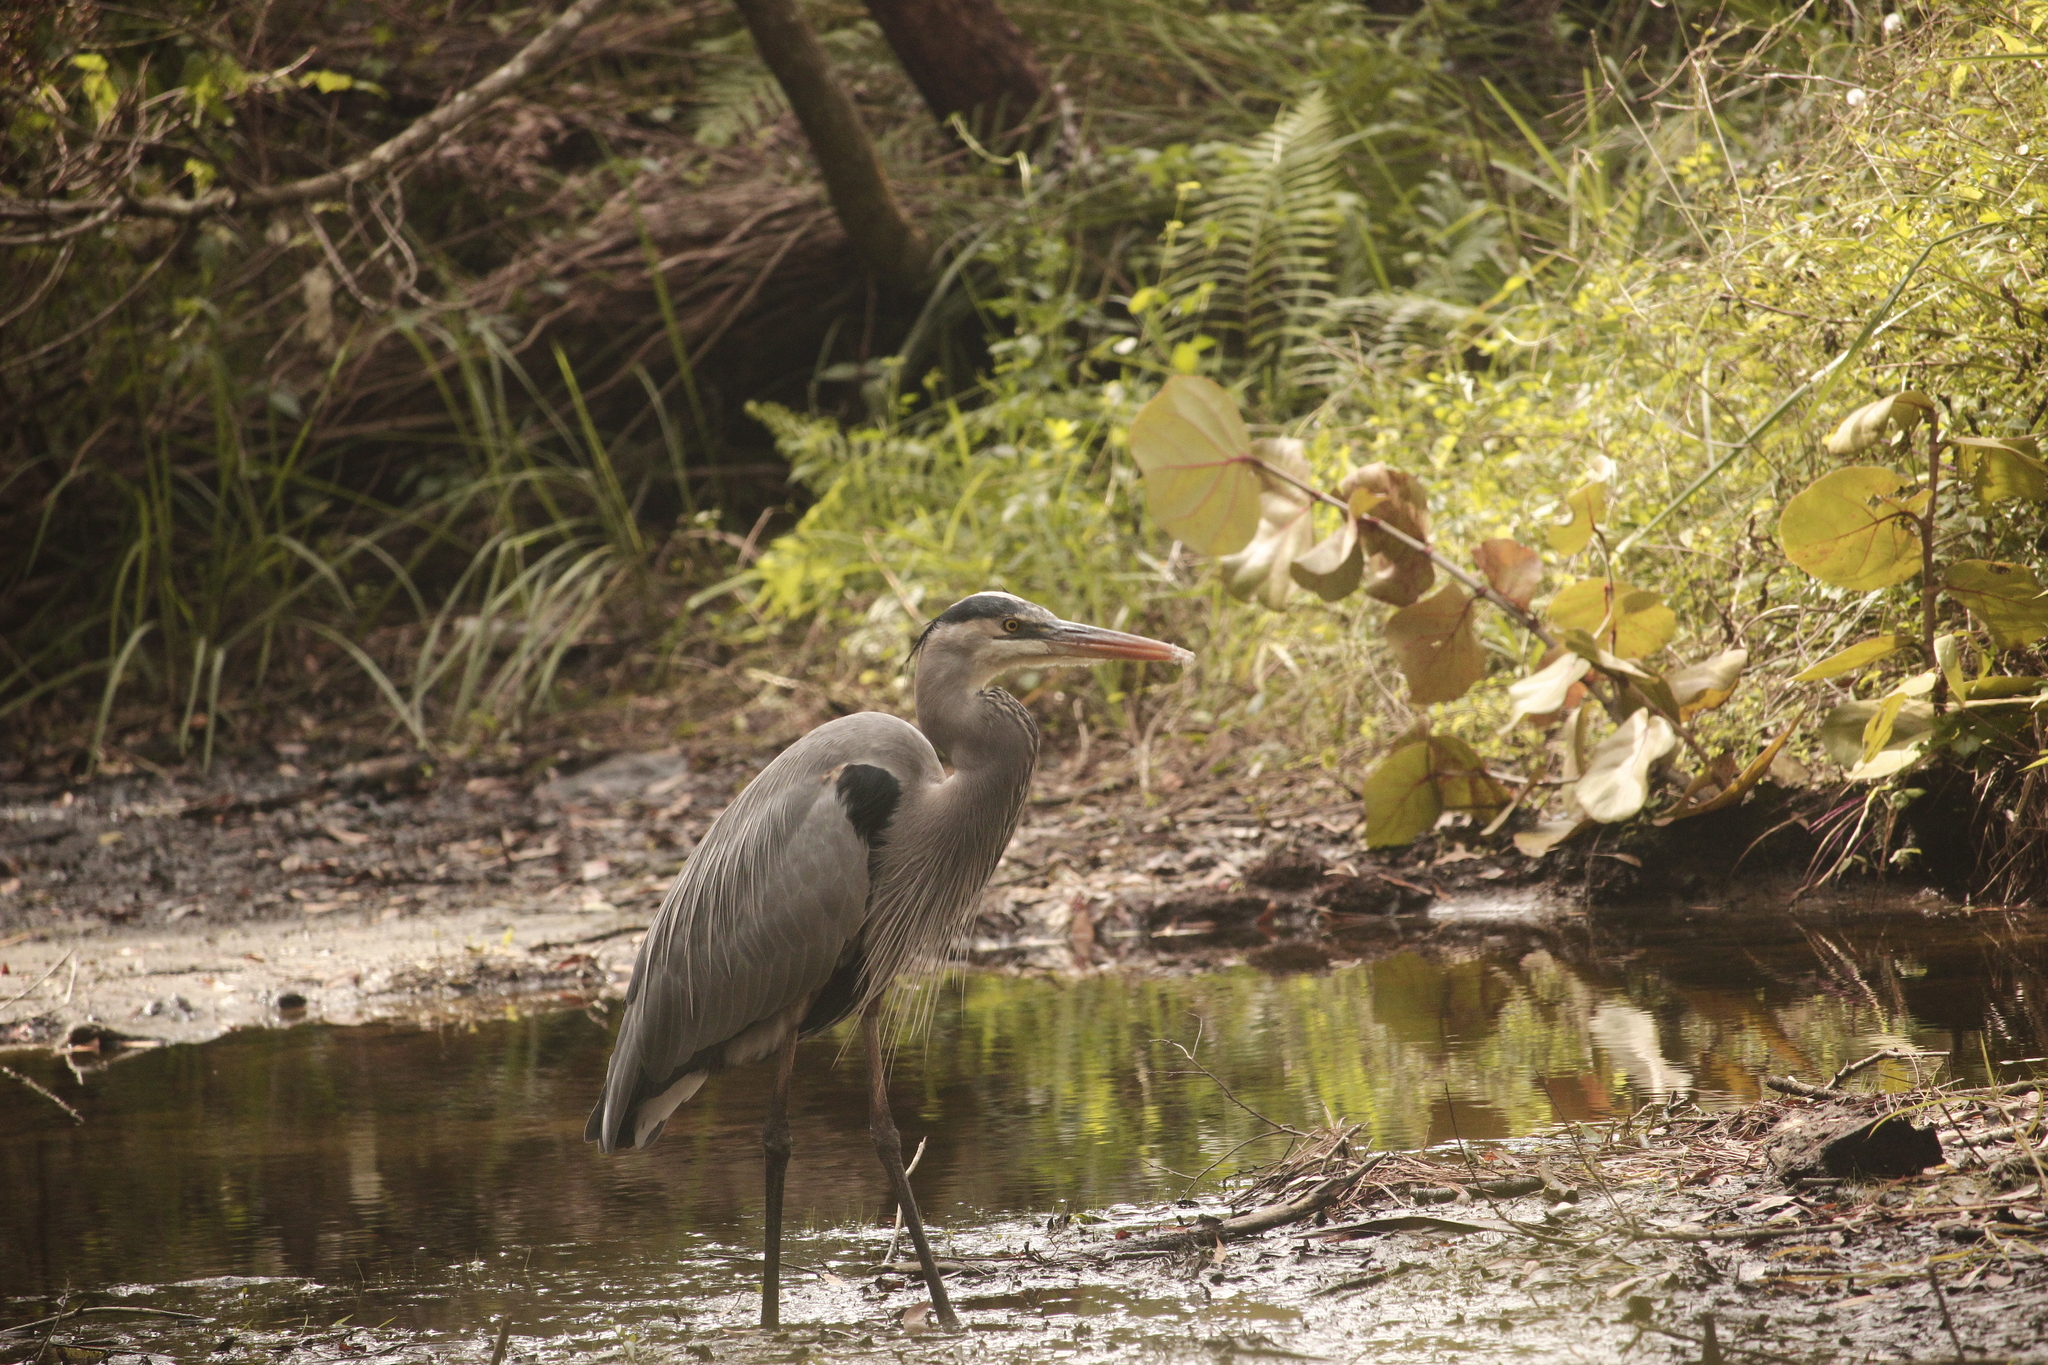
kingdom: Animalia
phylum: Chordata
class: Aves
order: Pelecaniformes
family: Ardeidae
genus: Ardea
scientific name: Ardea herodias
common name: Great blue heron
